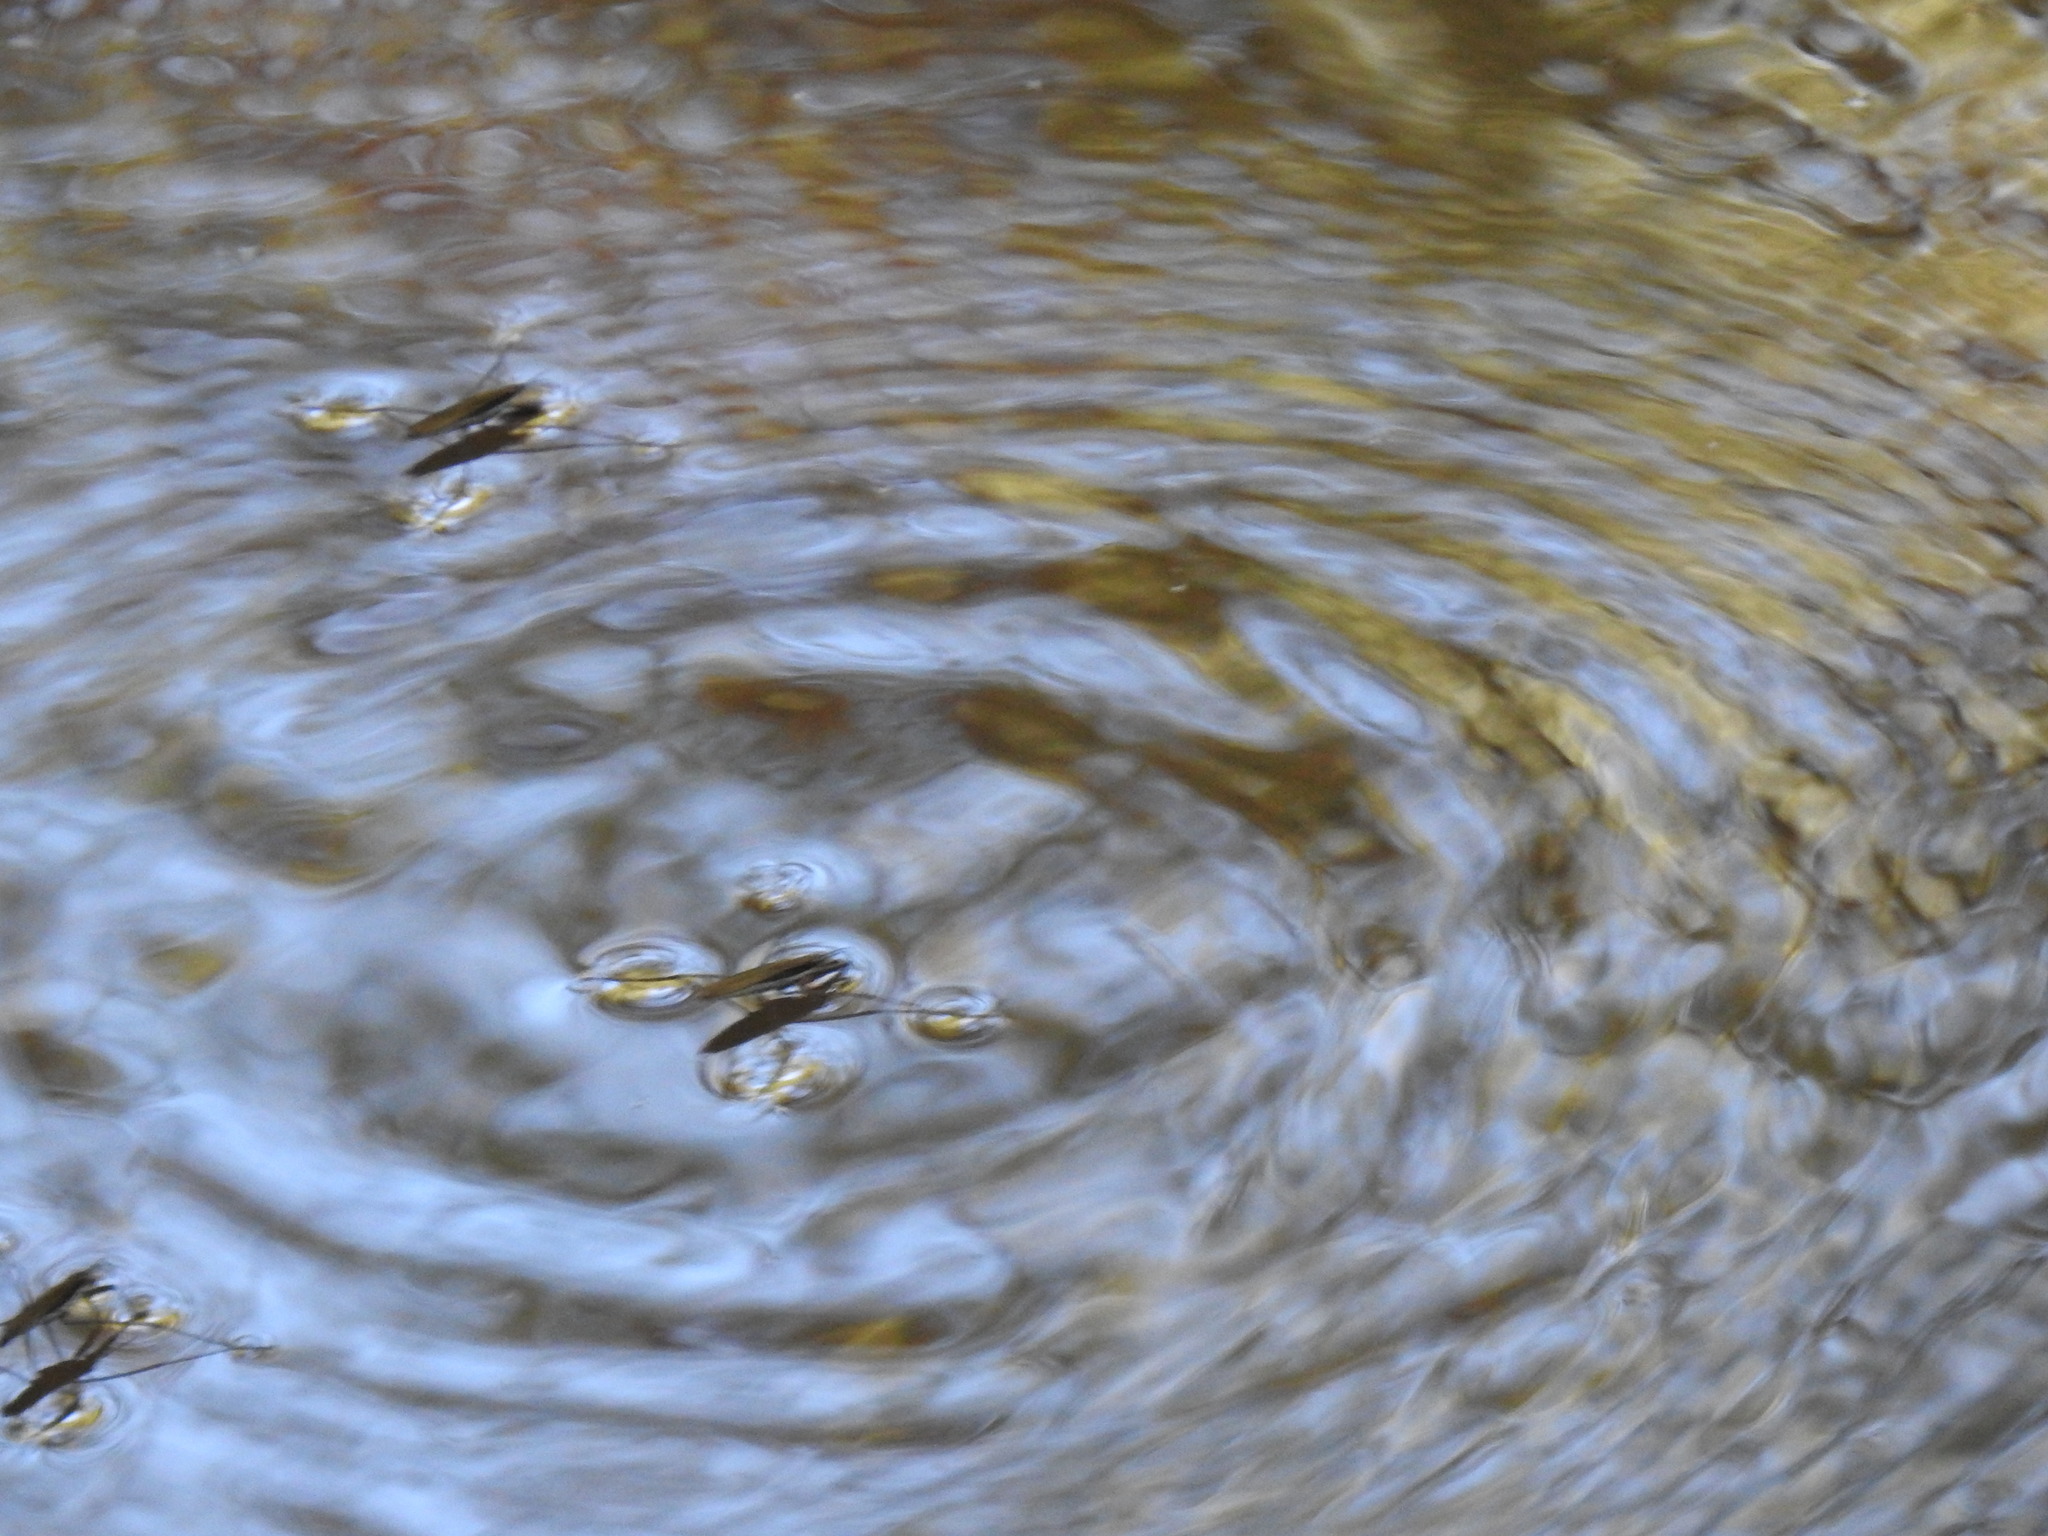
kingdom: Animalia
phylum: Arthropoda
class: Insecta
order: Hemiptera
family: Gerridae
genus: Aquarius
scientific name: Aquarius remigis
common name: Common water strider
